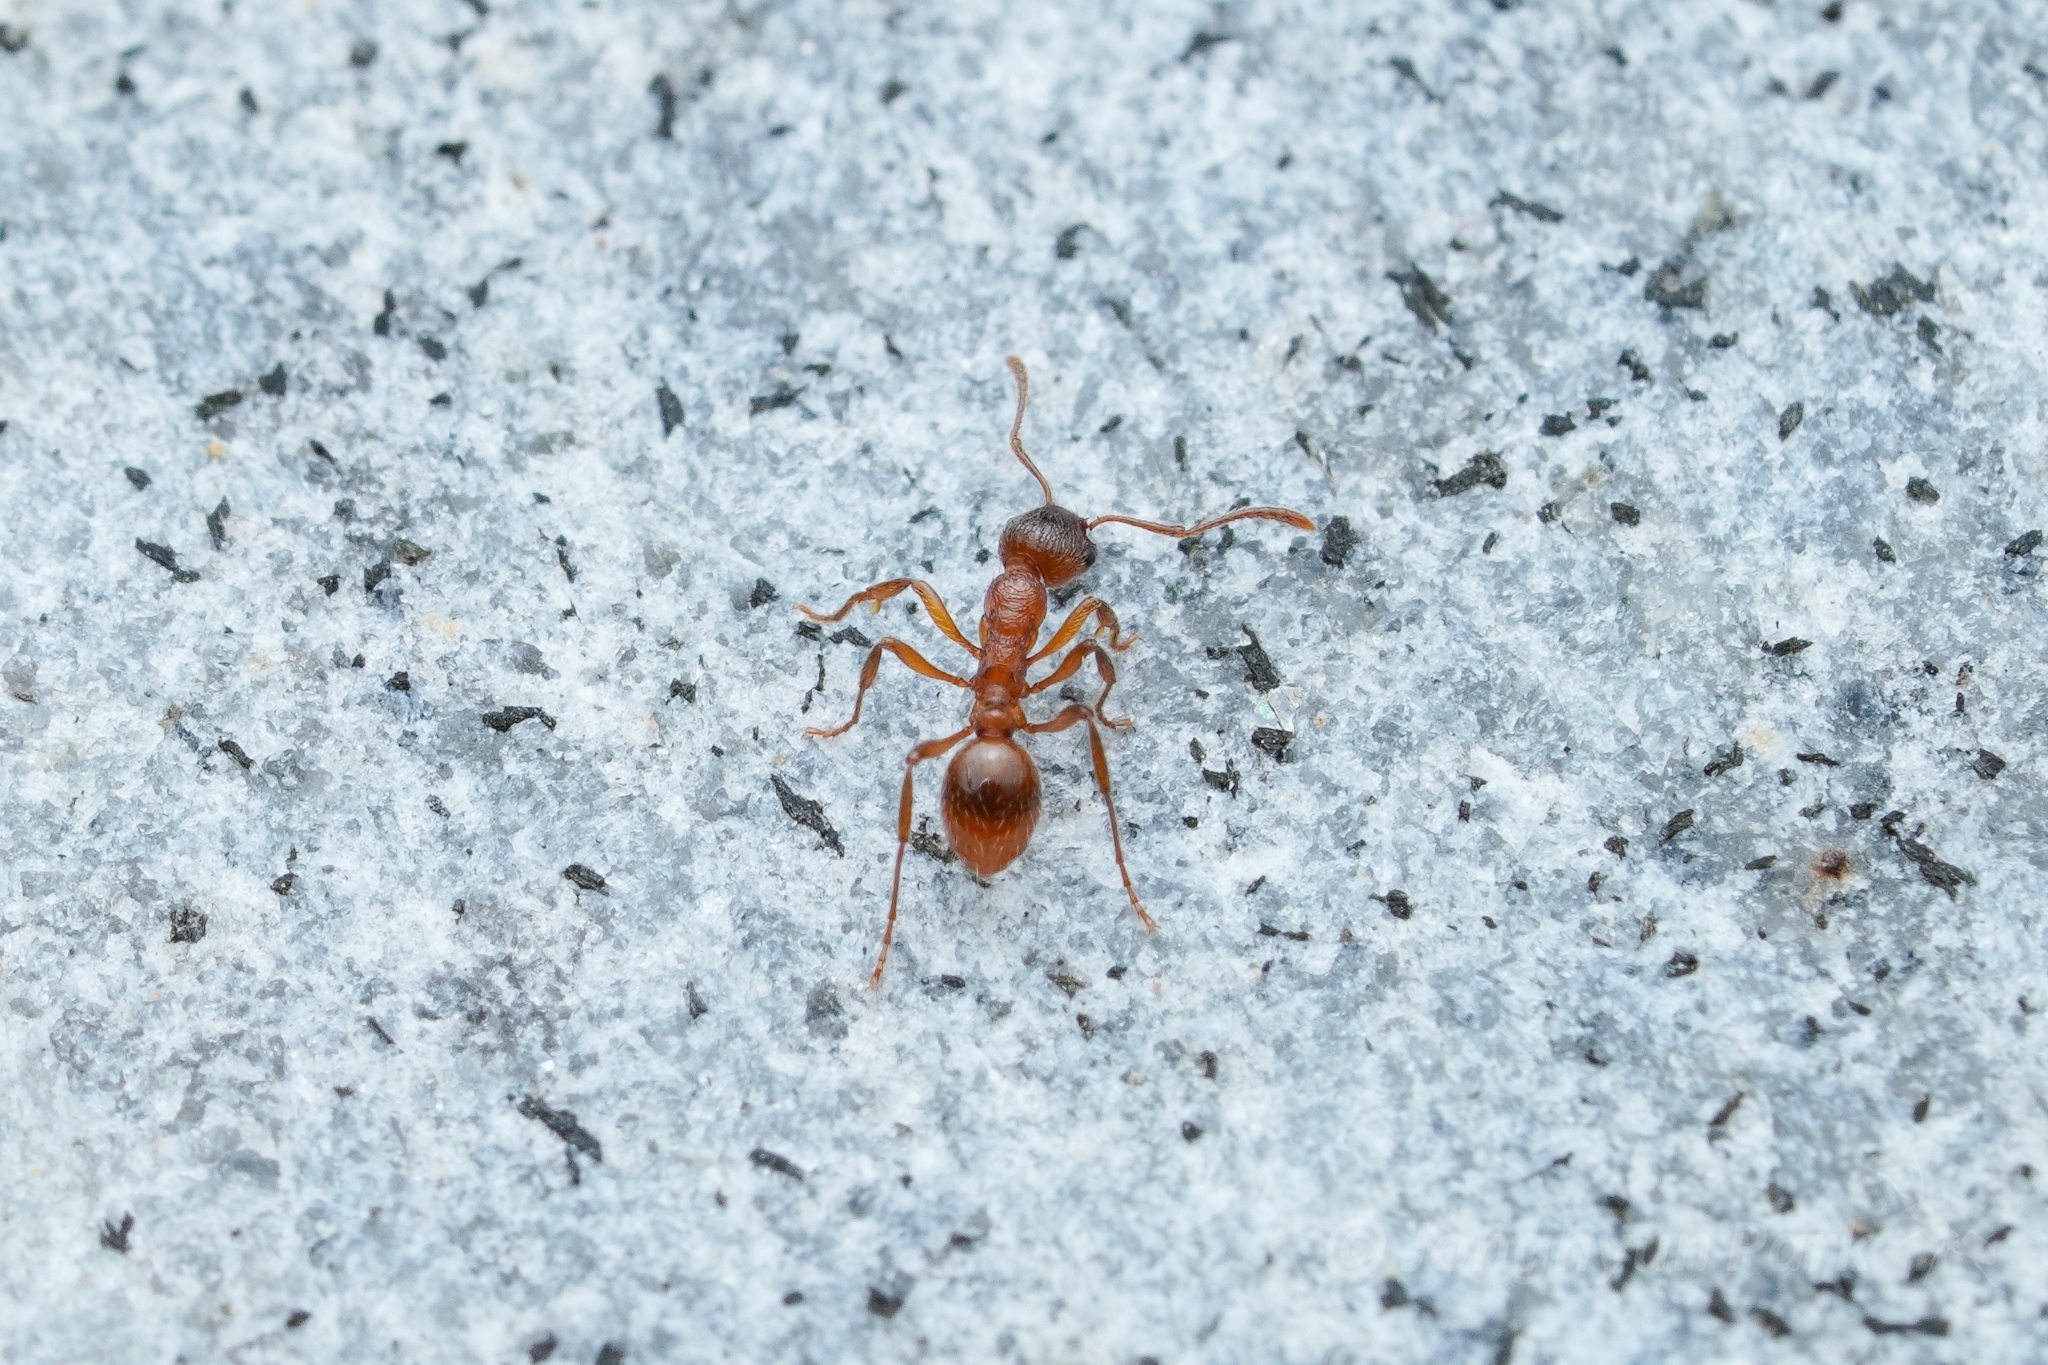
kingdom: Animalia
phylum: Arthropoda
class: Insecta
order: Hymenoptera
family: Formicidae
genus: Myrmica
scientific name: Myrmica rubra
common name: European fire ant
